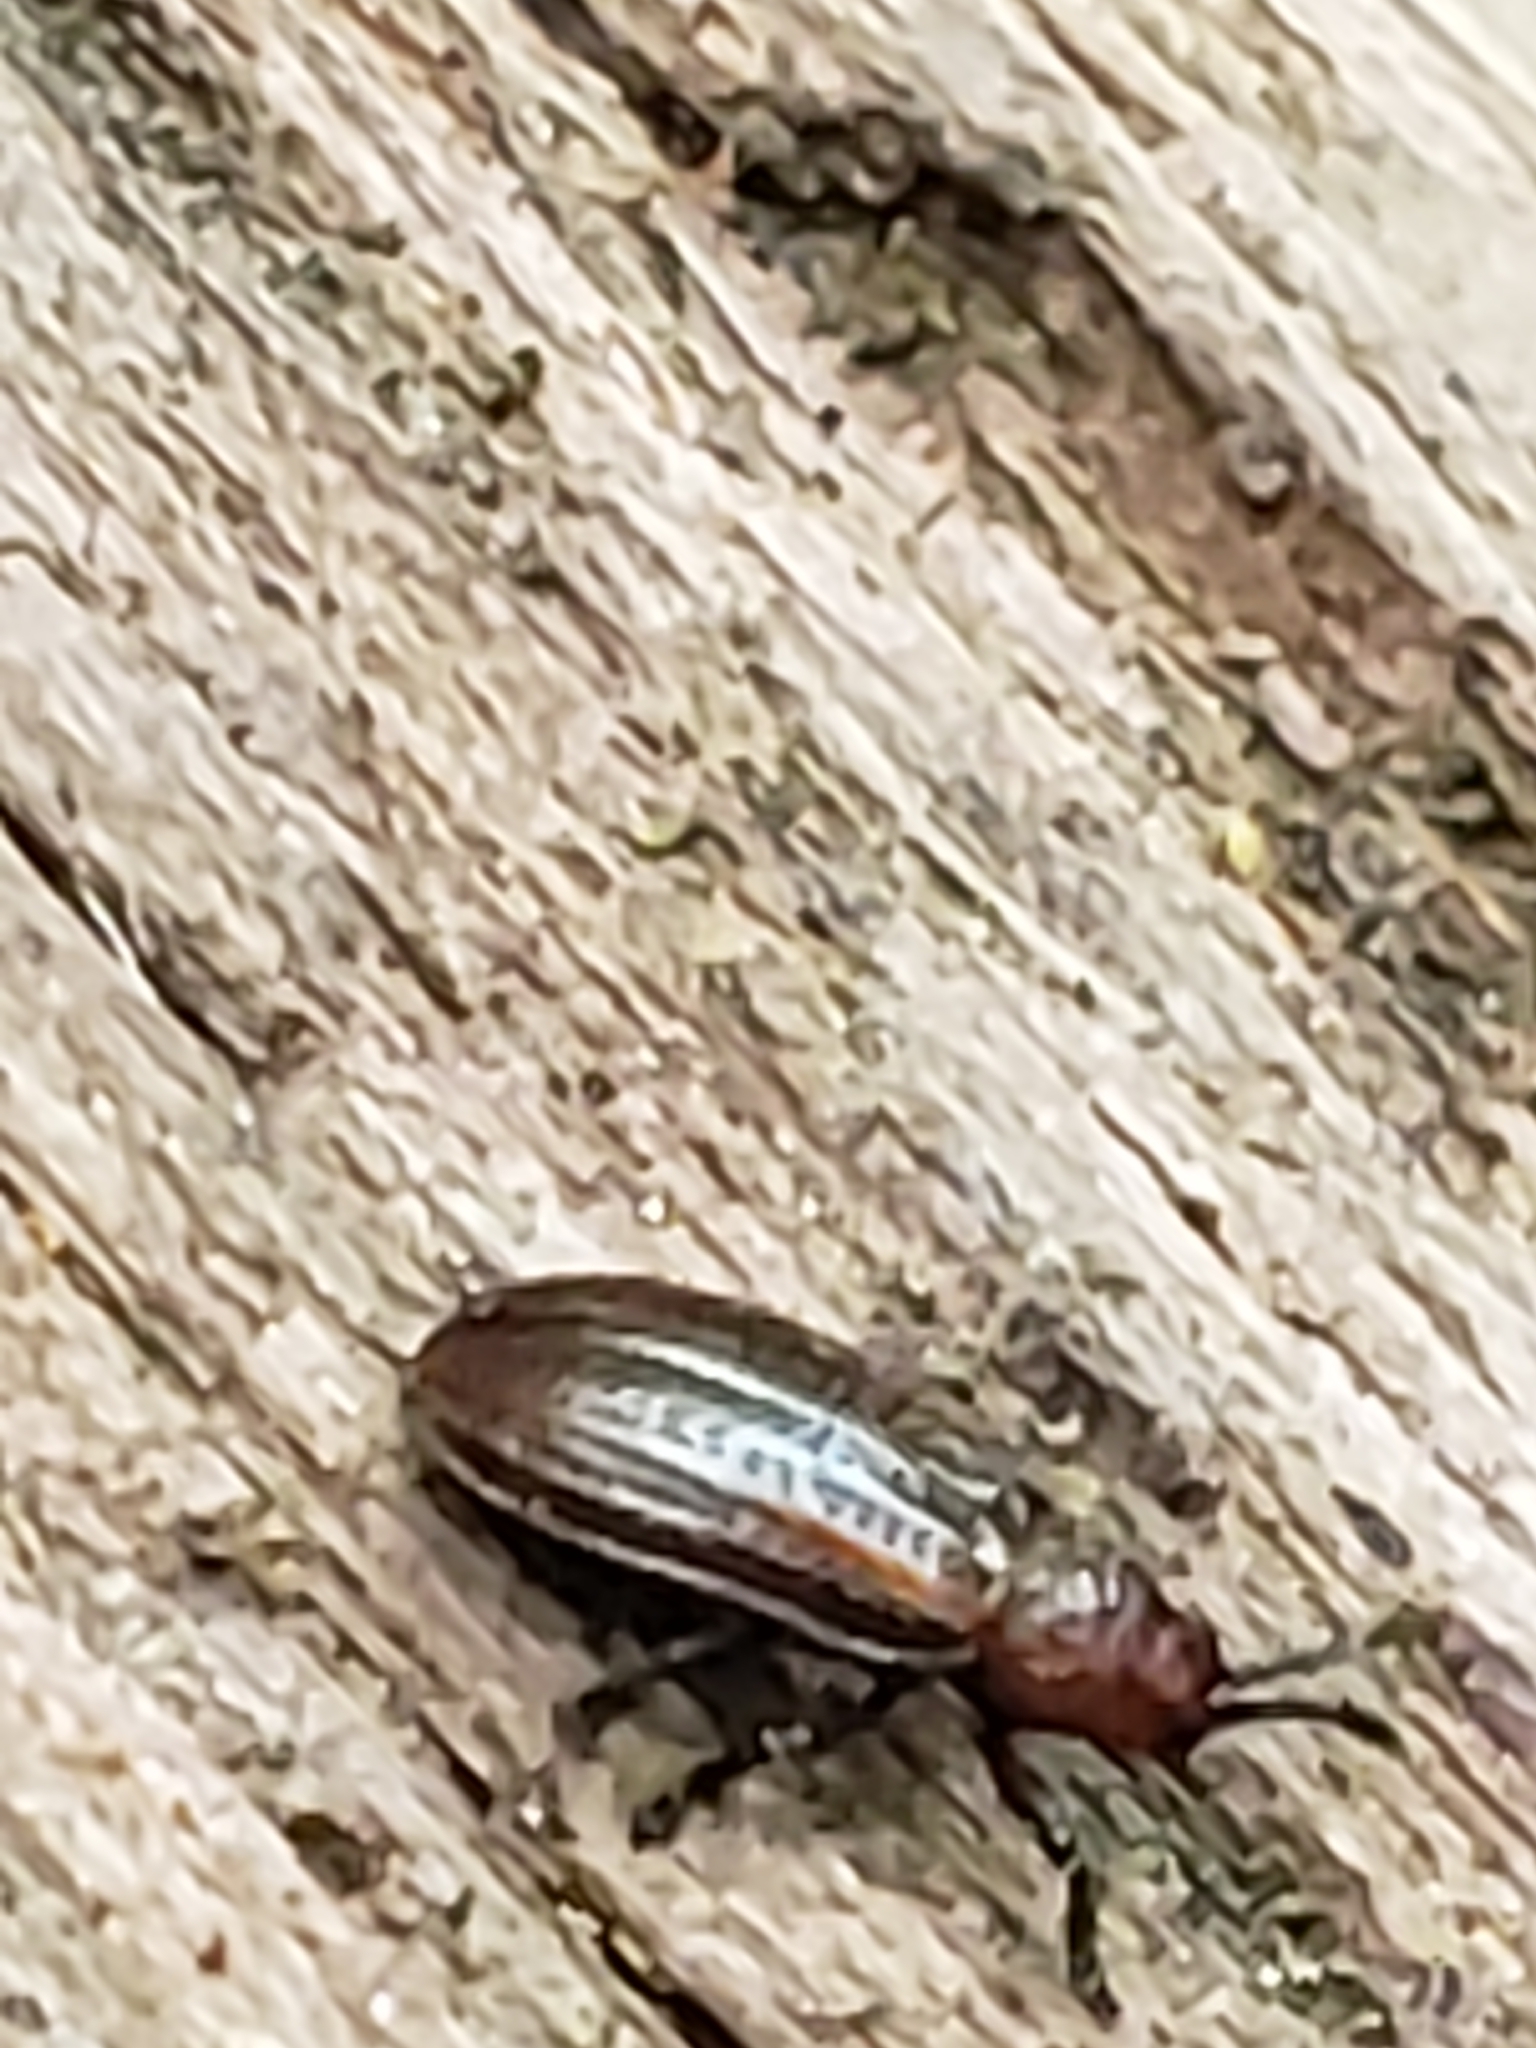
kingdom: Animalia
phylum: Arthropoda
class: Insecta
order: Coleoptera
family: Chrysomelidae
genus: Microrhopala
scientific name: Microrhopala vittata
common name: Goldenrod leaf miner beetle
